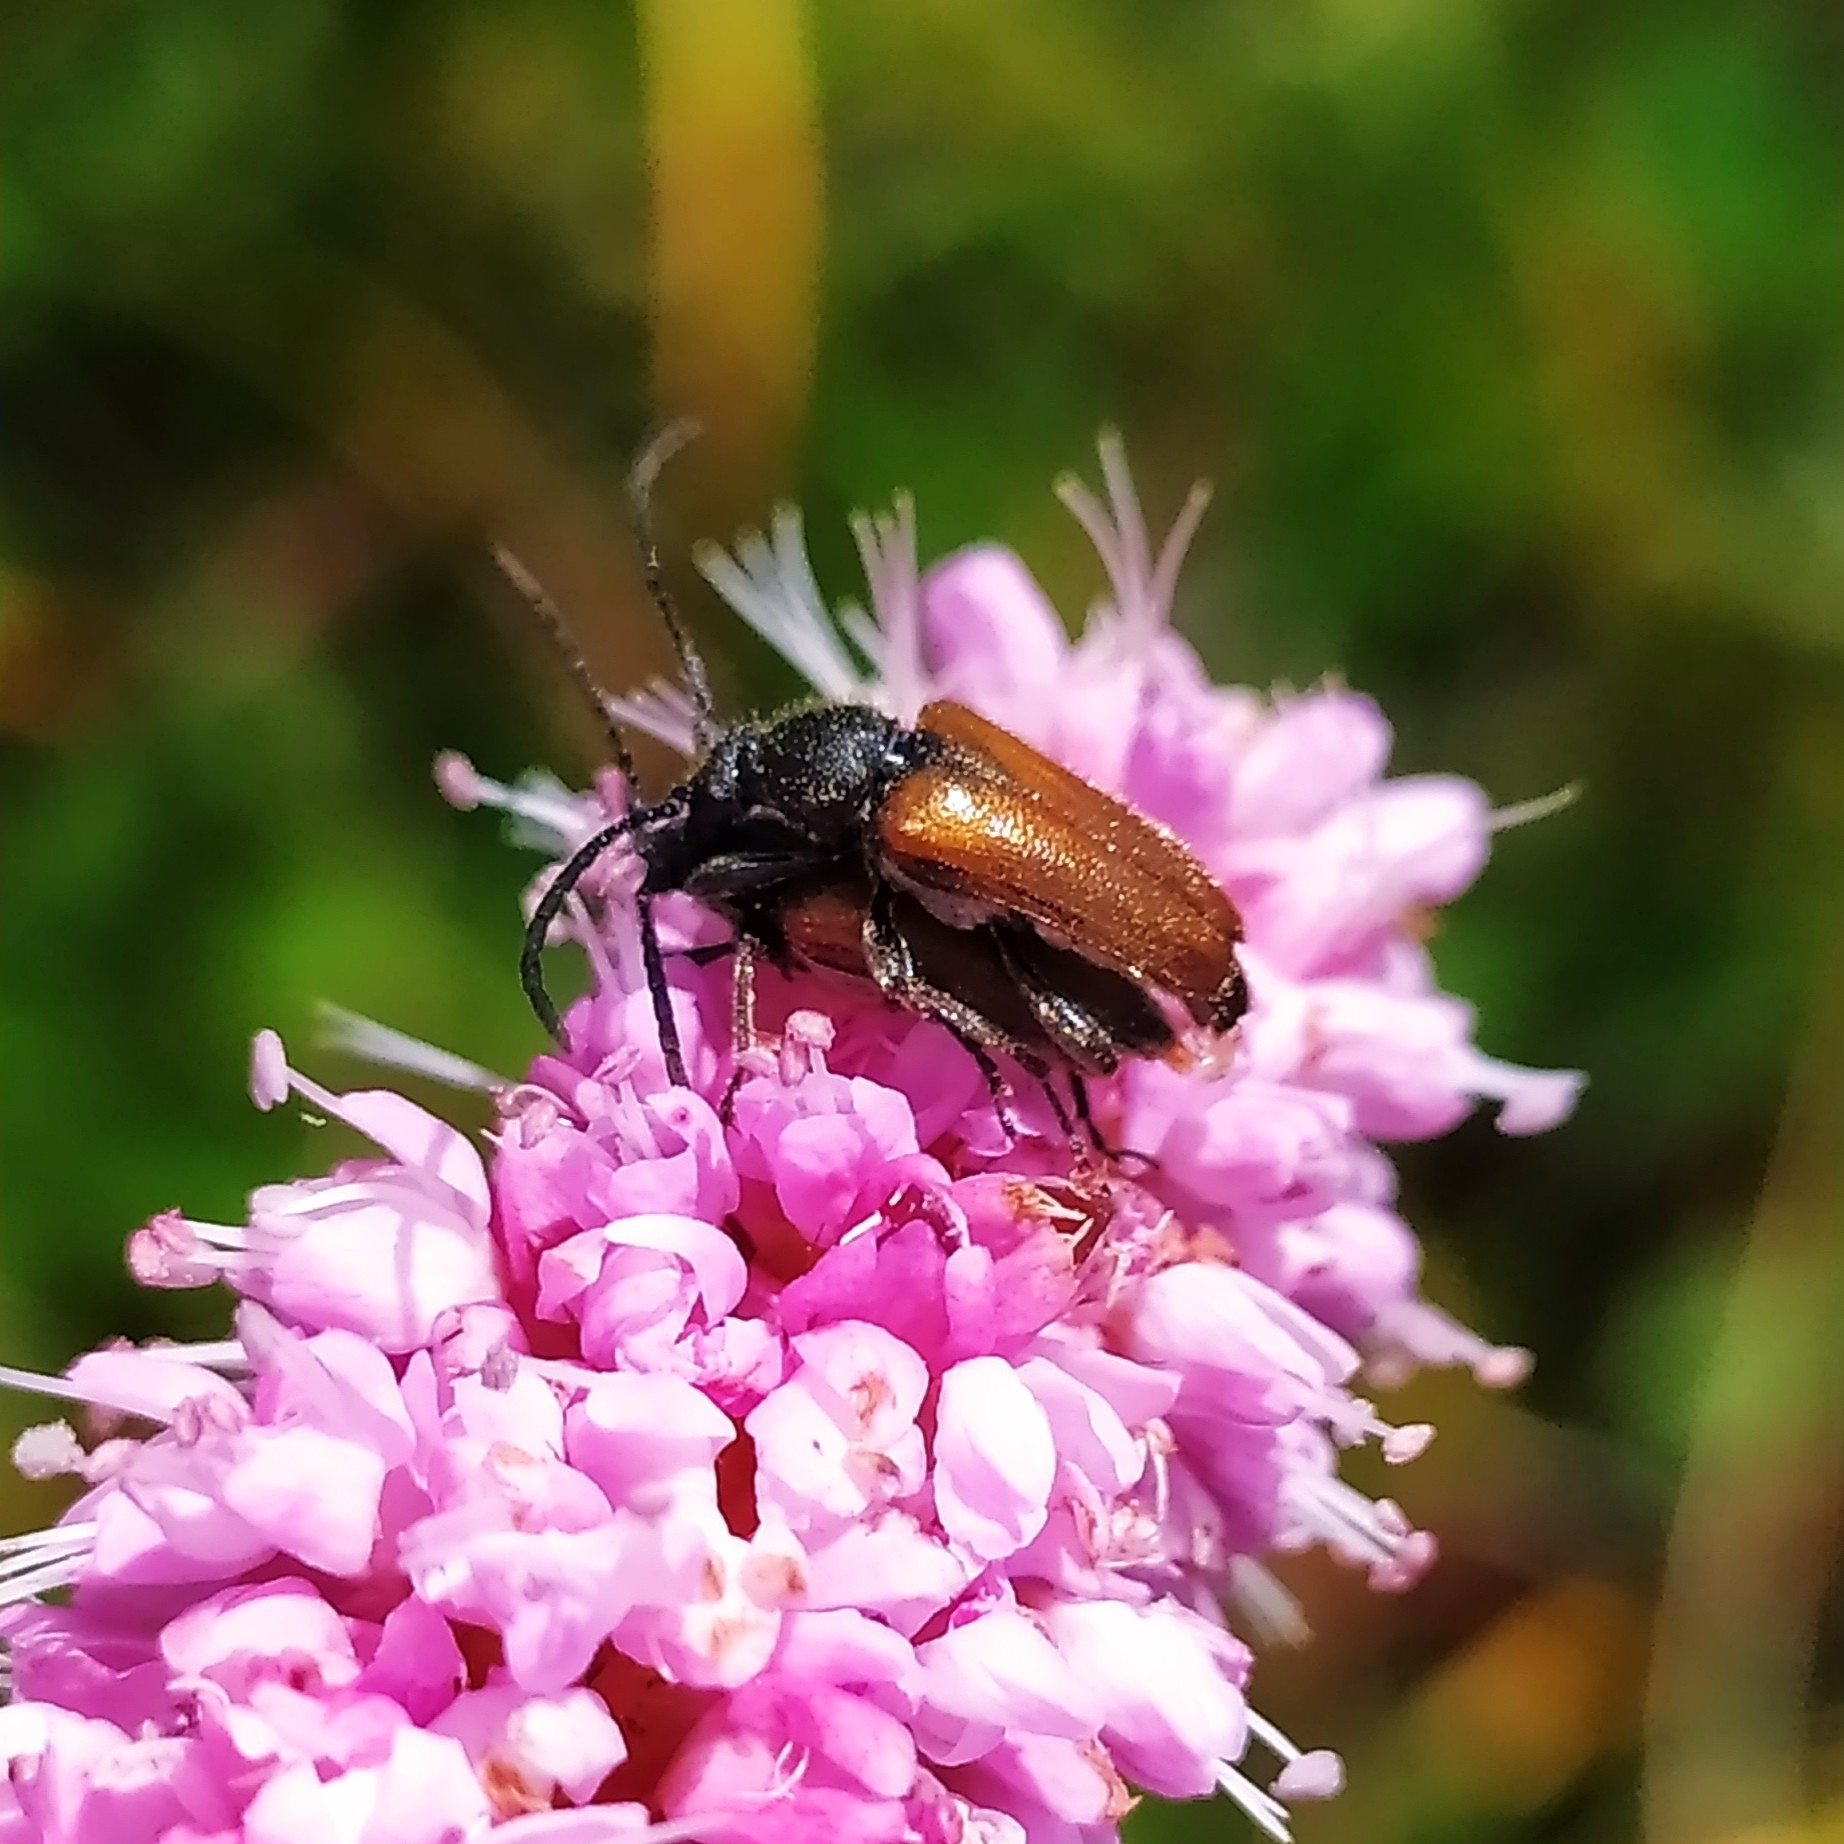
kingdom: Animalia
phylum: Arthropoda
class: Insecta
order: Coleoptera
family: Cerambycidae
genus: Pseudovadonia
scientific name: Pseudovadonia livida
